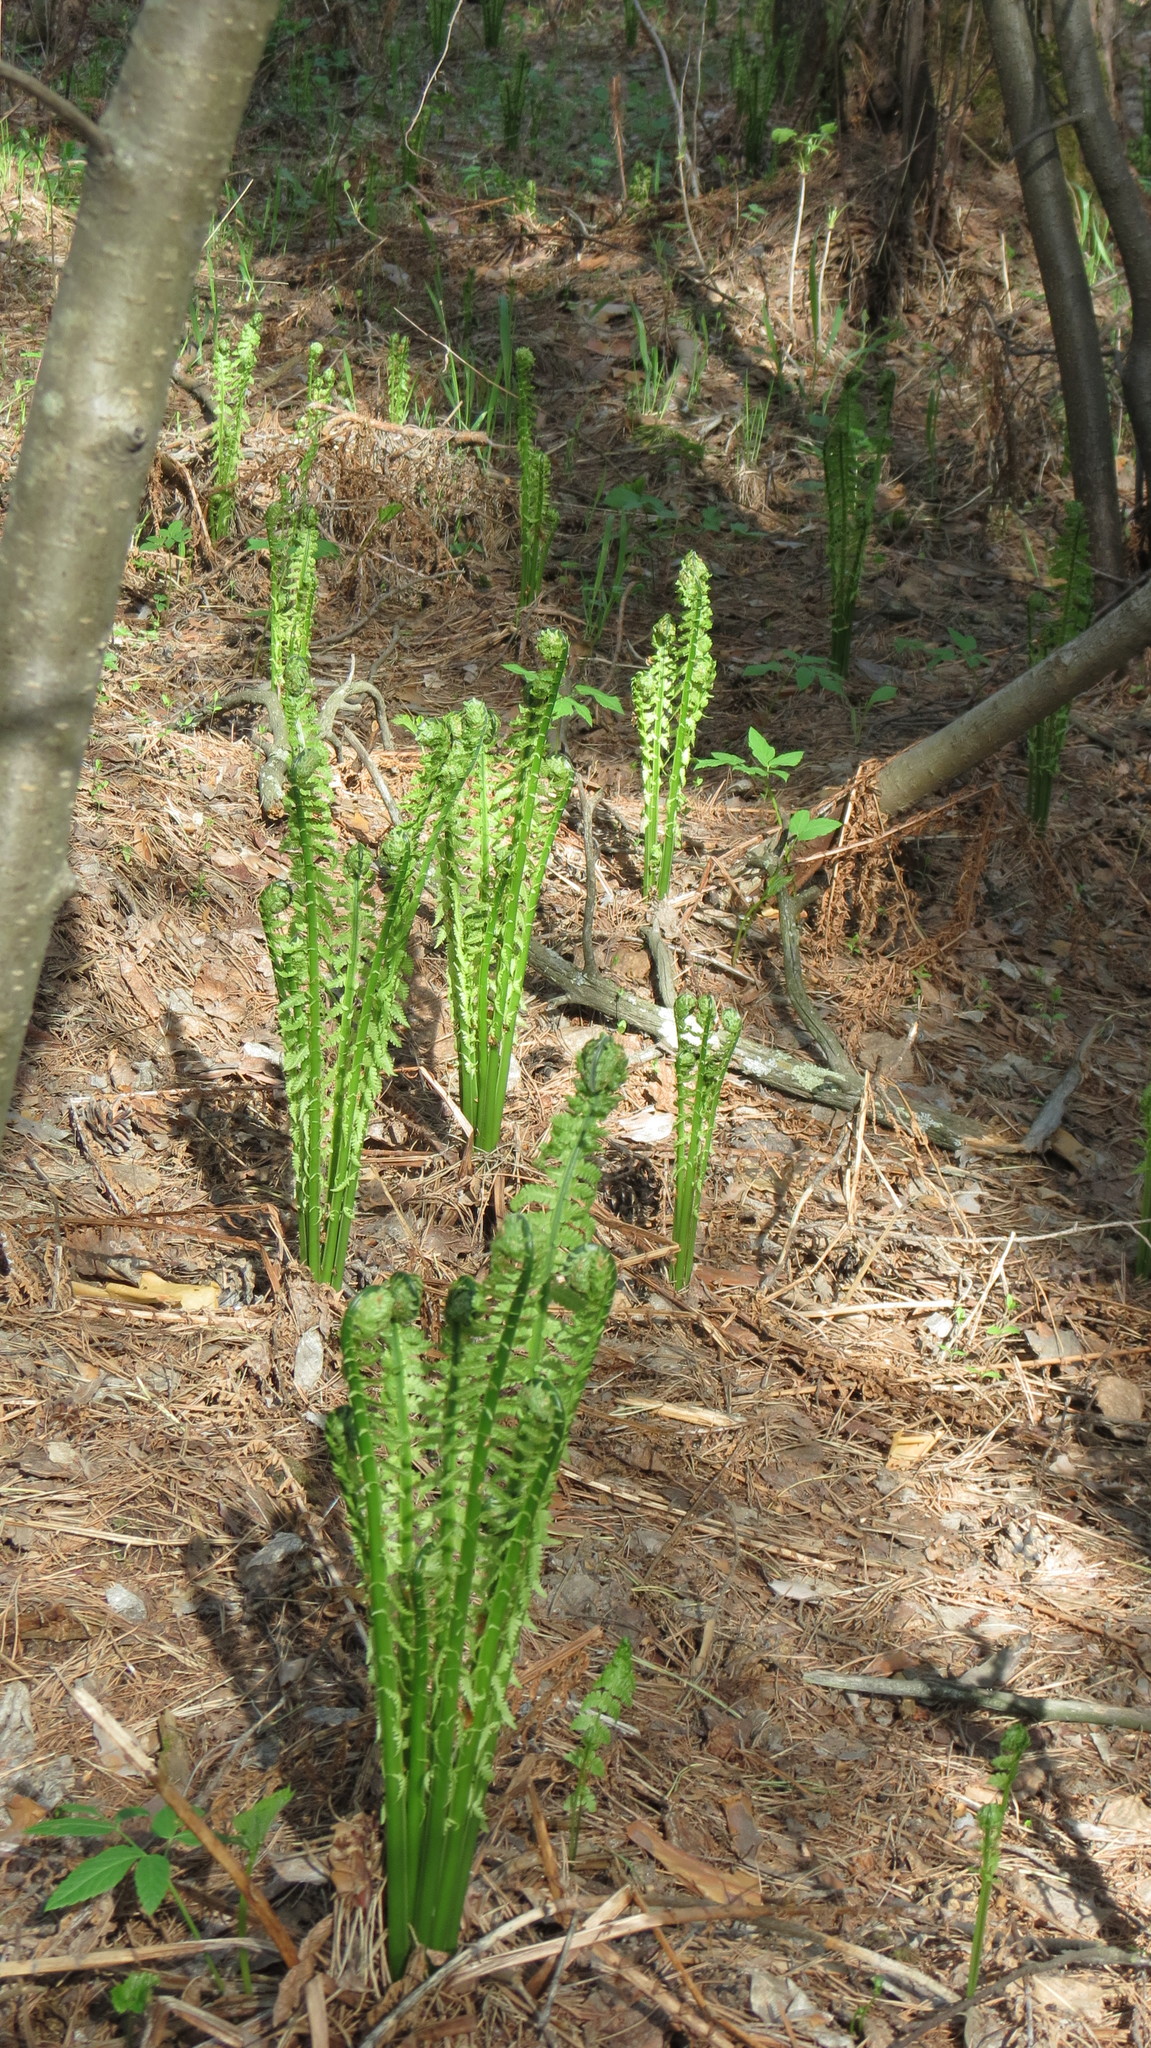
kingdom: Plantae
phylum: Tracheophyta
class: Polypodiopsida
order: Polypodiales
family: Onocleaceae
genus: Matteuccia
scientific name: Matteuccia struthiopteris
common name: Ostrich fern
